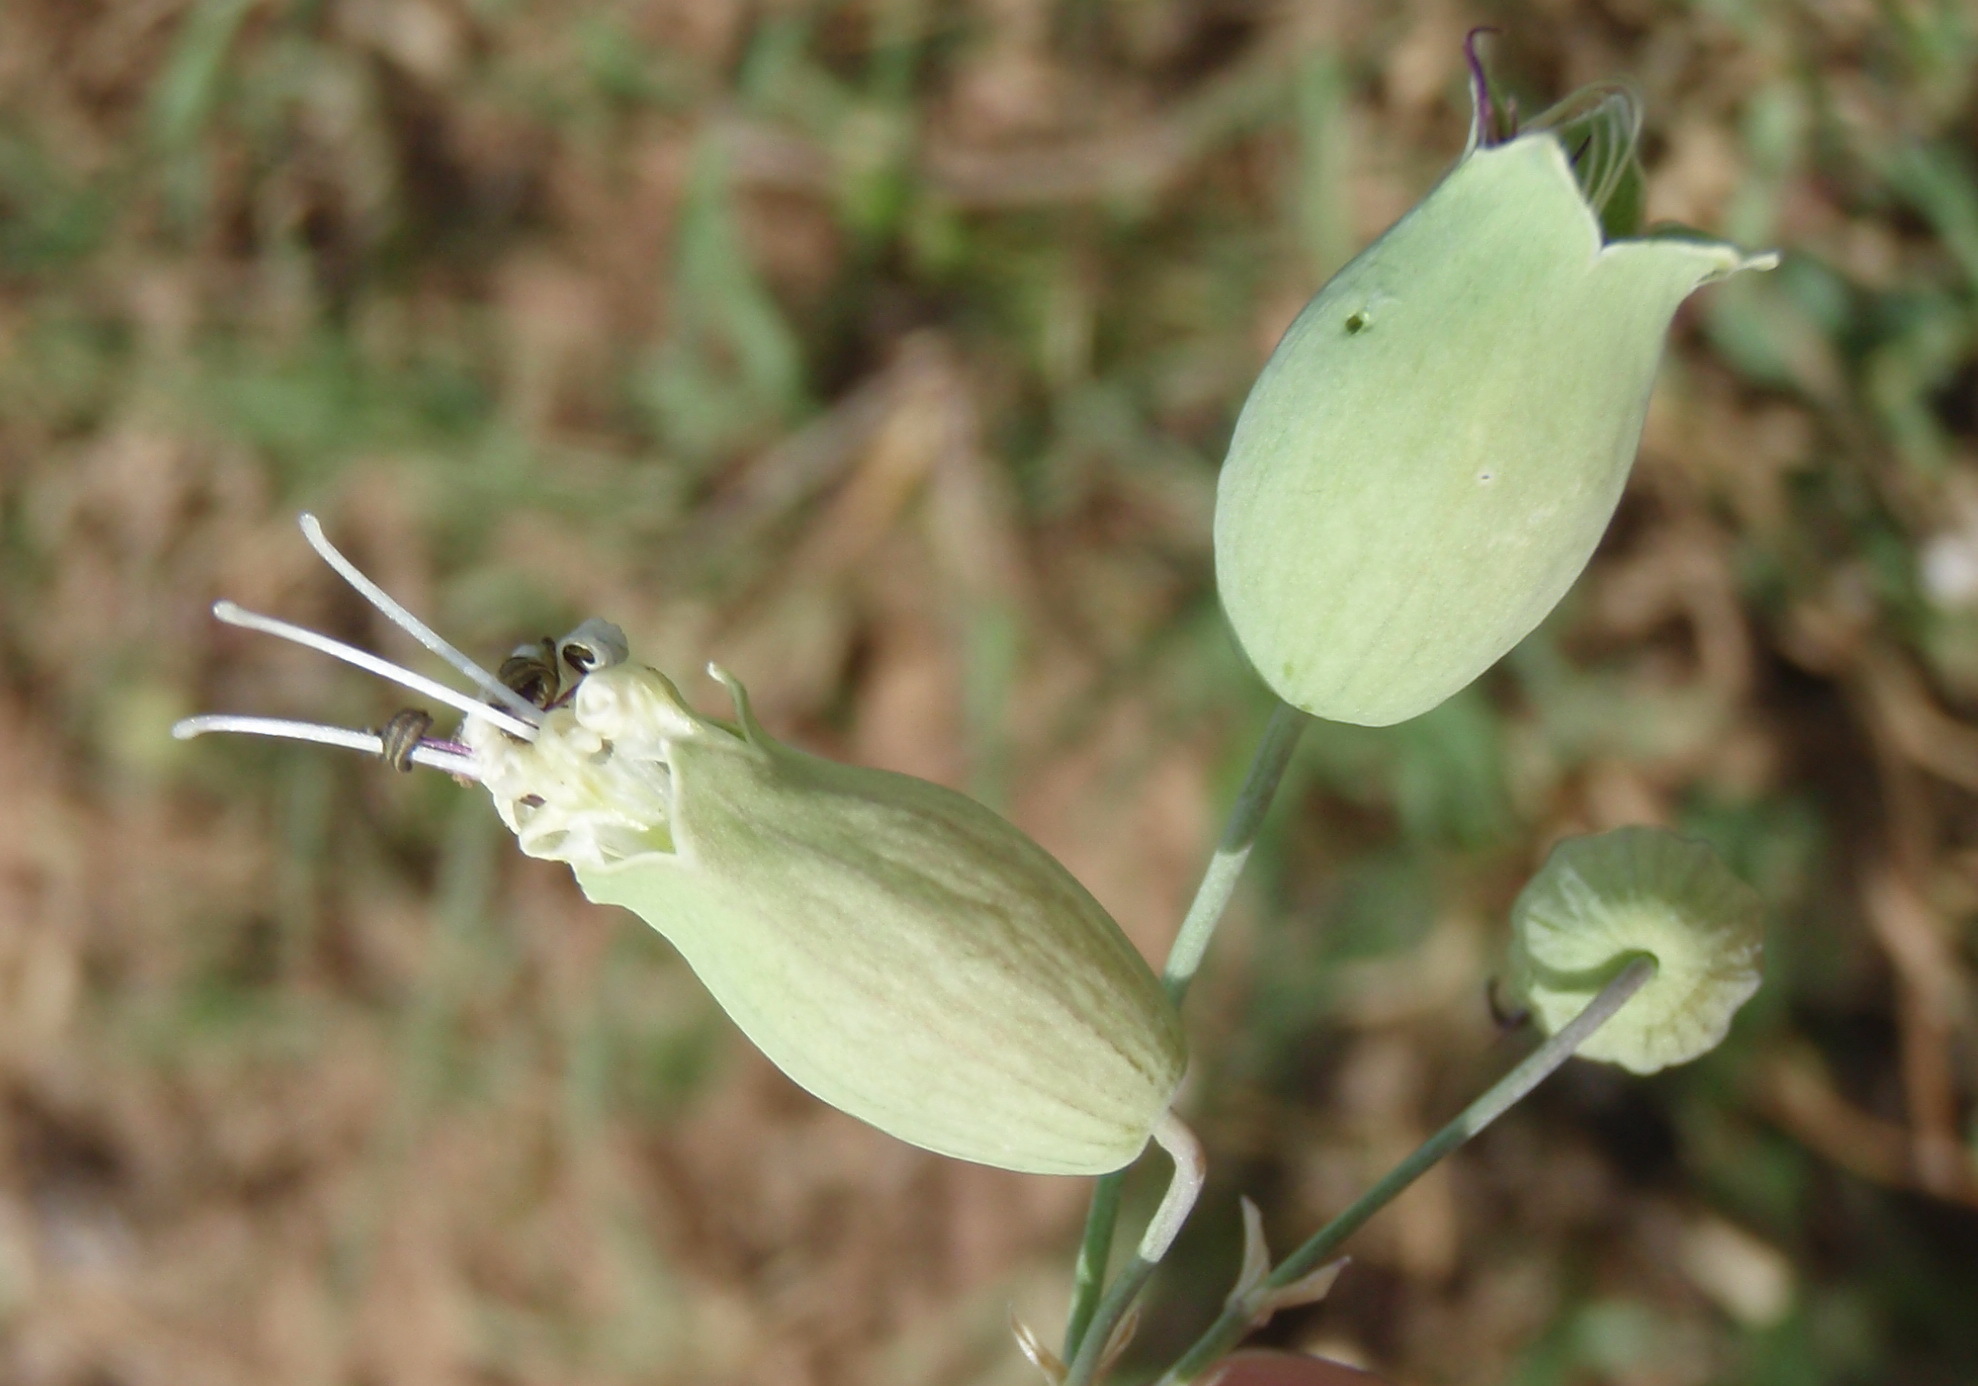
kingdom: Plantae
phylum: Tracheophyta
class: Magnoliopsida
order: Caryophyllales
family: Caryophyllaceae
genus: Silene
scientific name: Silene vulgaris
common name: Bladder campion
